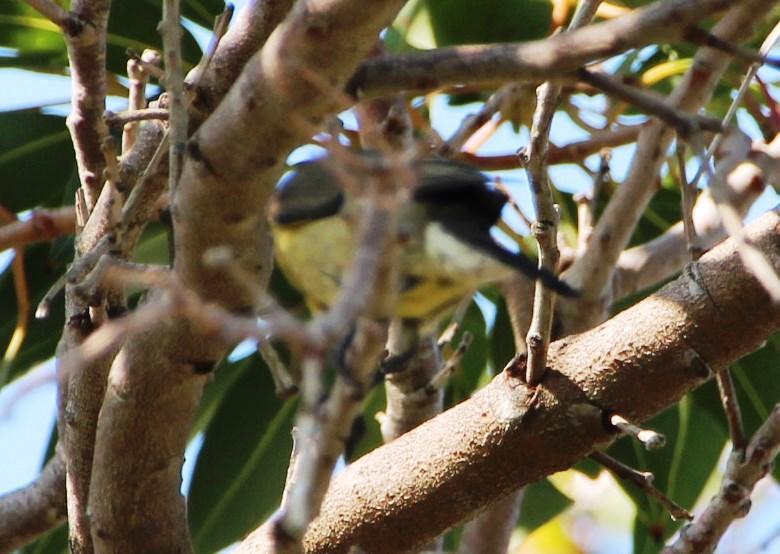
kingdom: Animalia
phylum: Chordata
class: Aves
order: Passeriformes
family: Nectariniidae
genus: Nectarinia
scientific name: Nectarinia famosa
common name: Malachite sunbird
